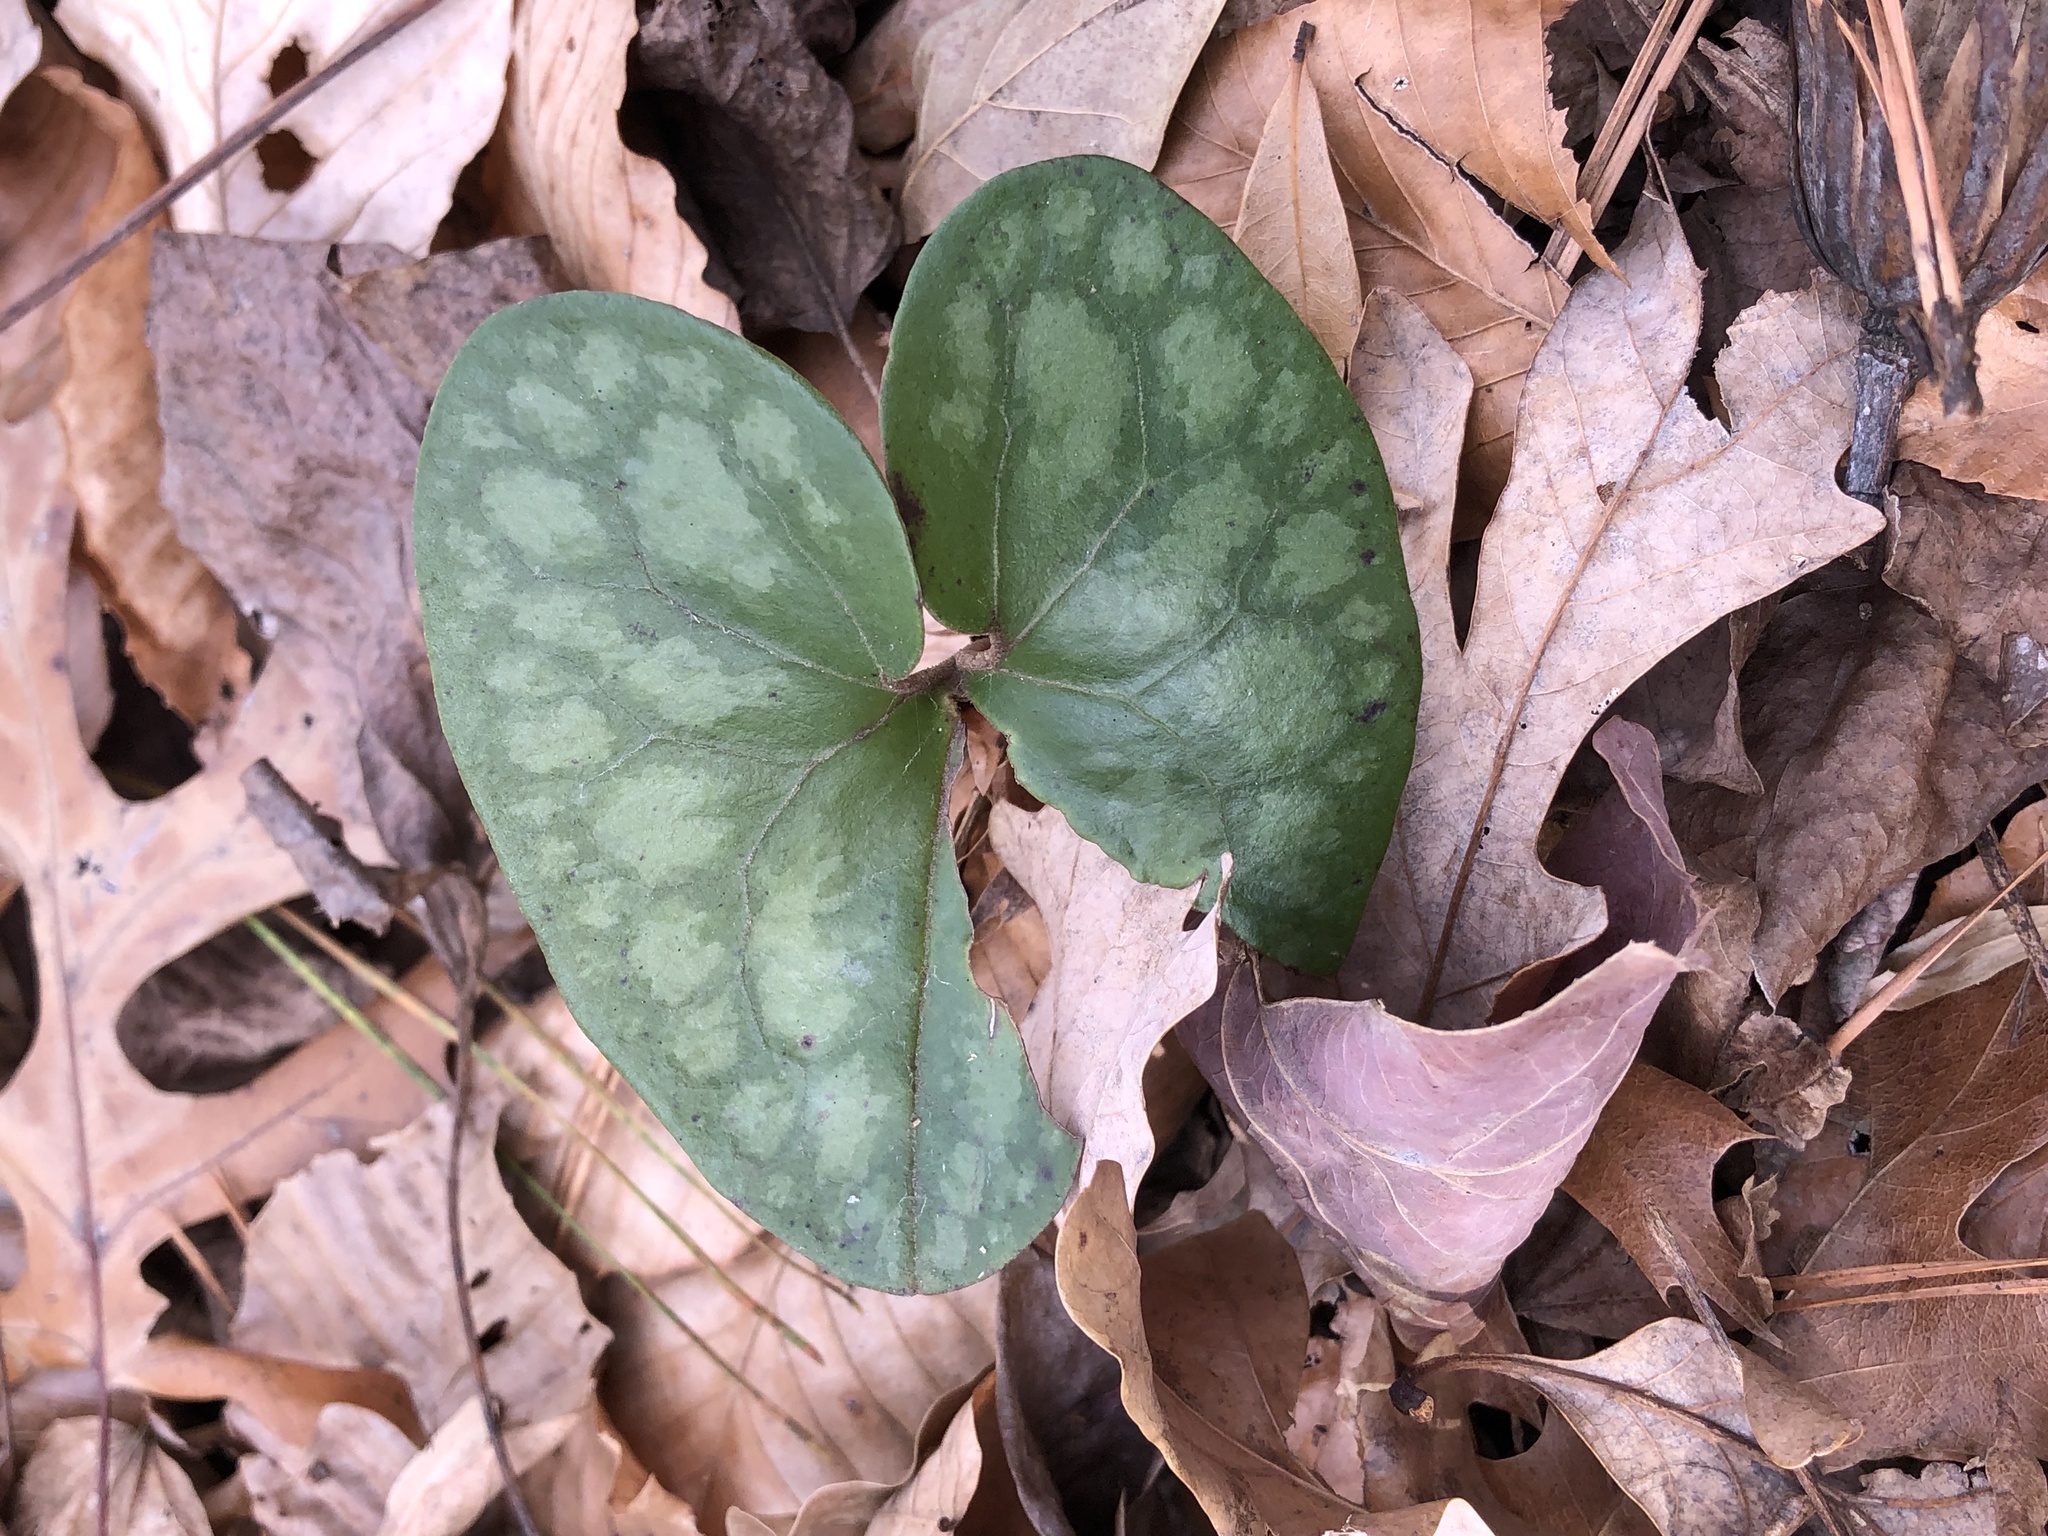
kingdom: Plantae
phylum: Tracheophyta
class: Magnoliopsida
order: Piperales
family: Aristolochiaceae
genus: Hexastylis
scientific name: Hexastylis arifolia
